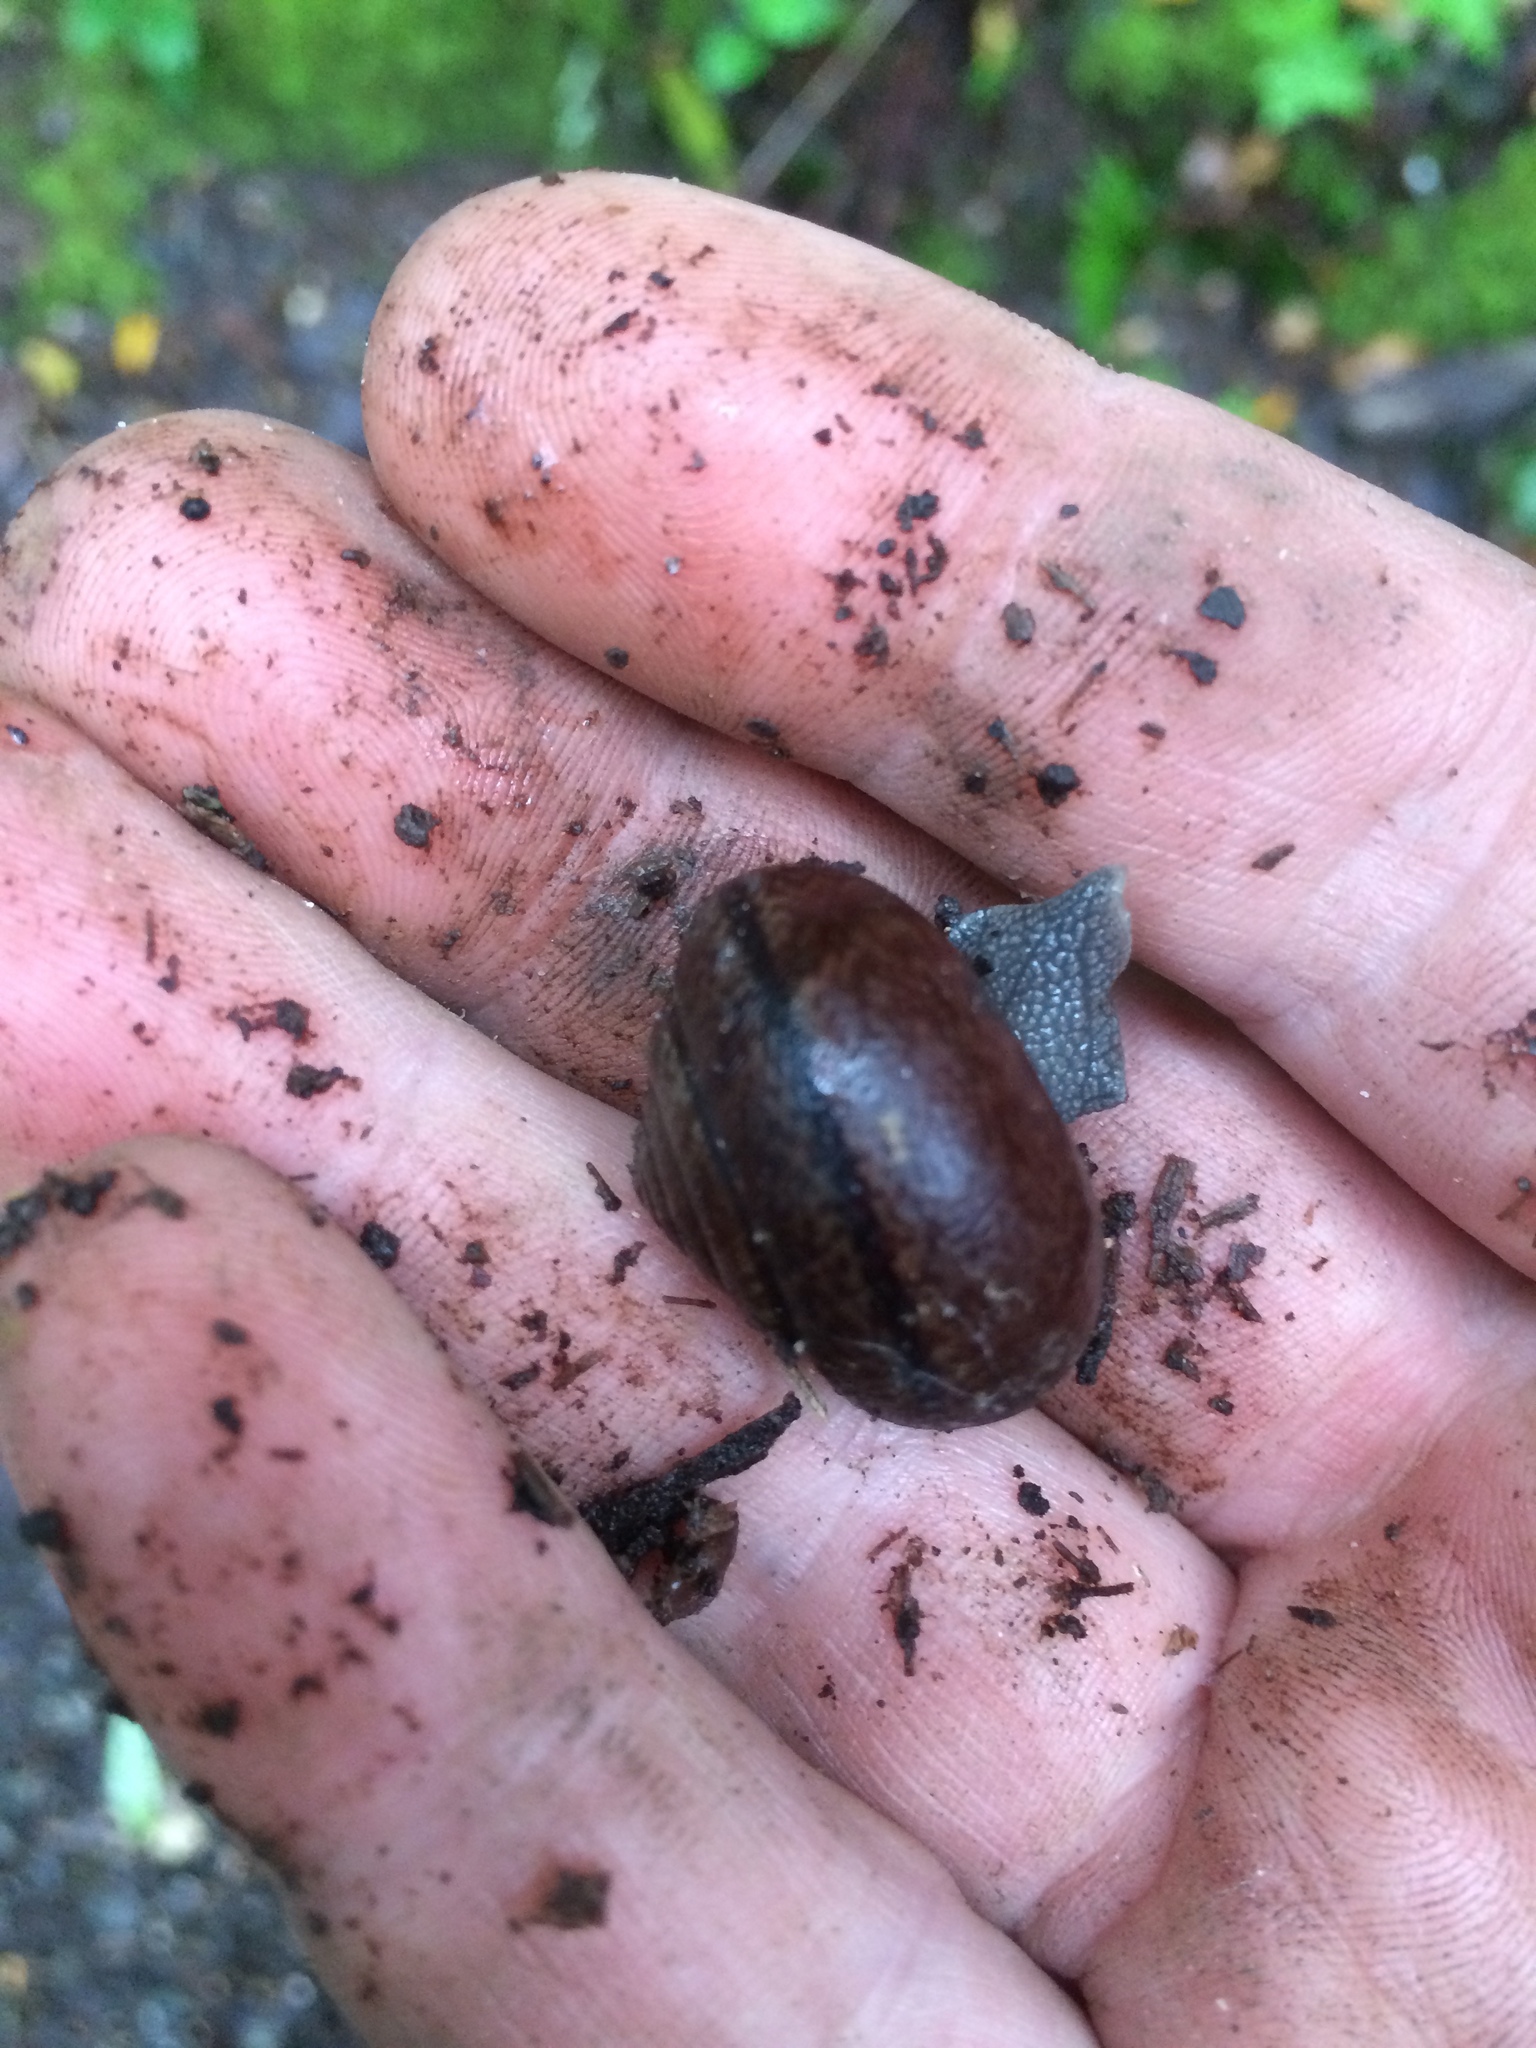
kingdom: Animalia
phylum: Mollusca
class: Gastropoda
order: Stylommatophora
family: Xanthonychidae
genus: Helminthoglypta
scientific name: Helminthoglypta nickliniana
